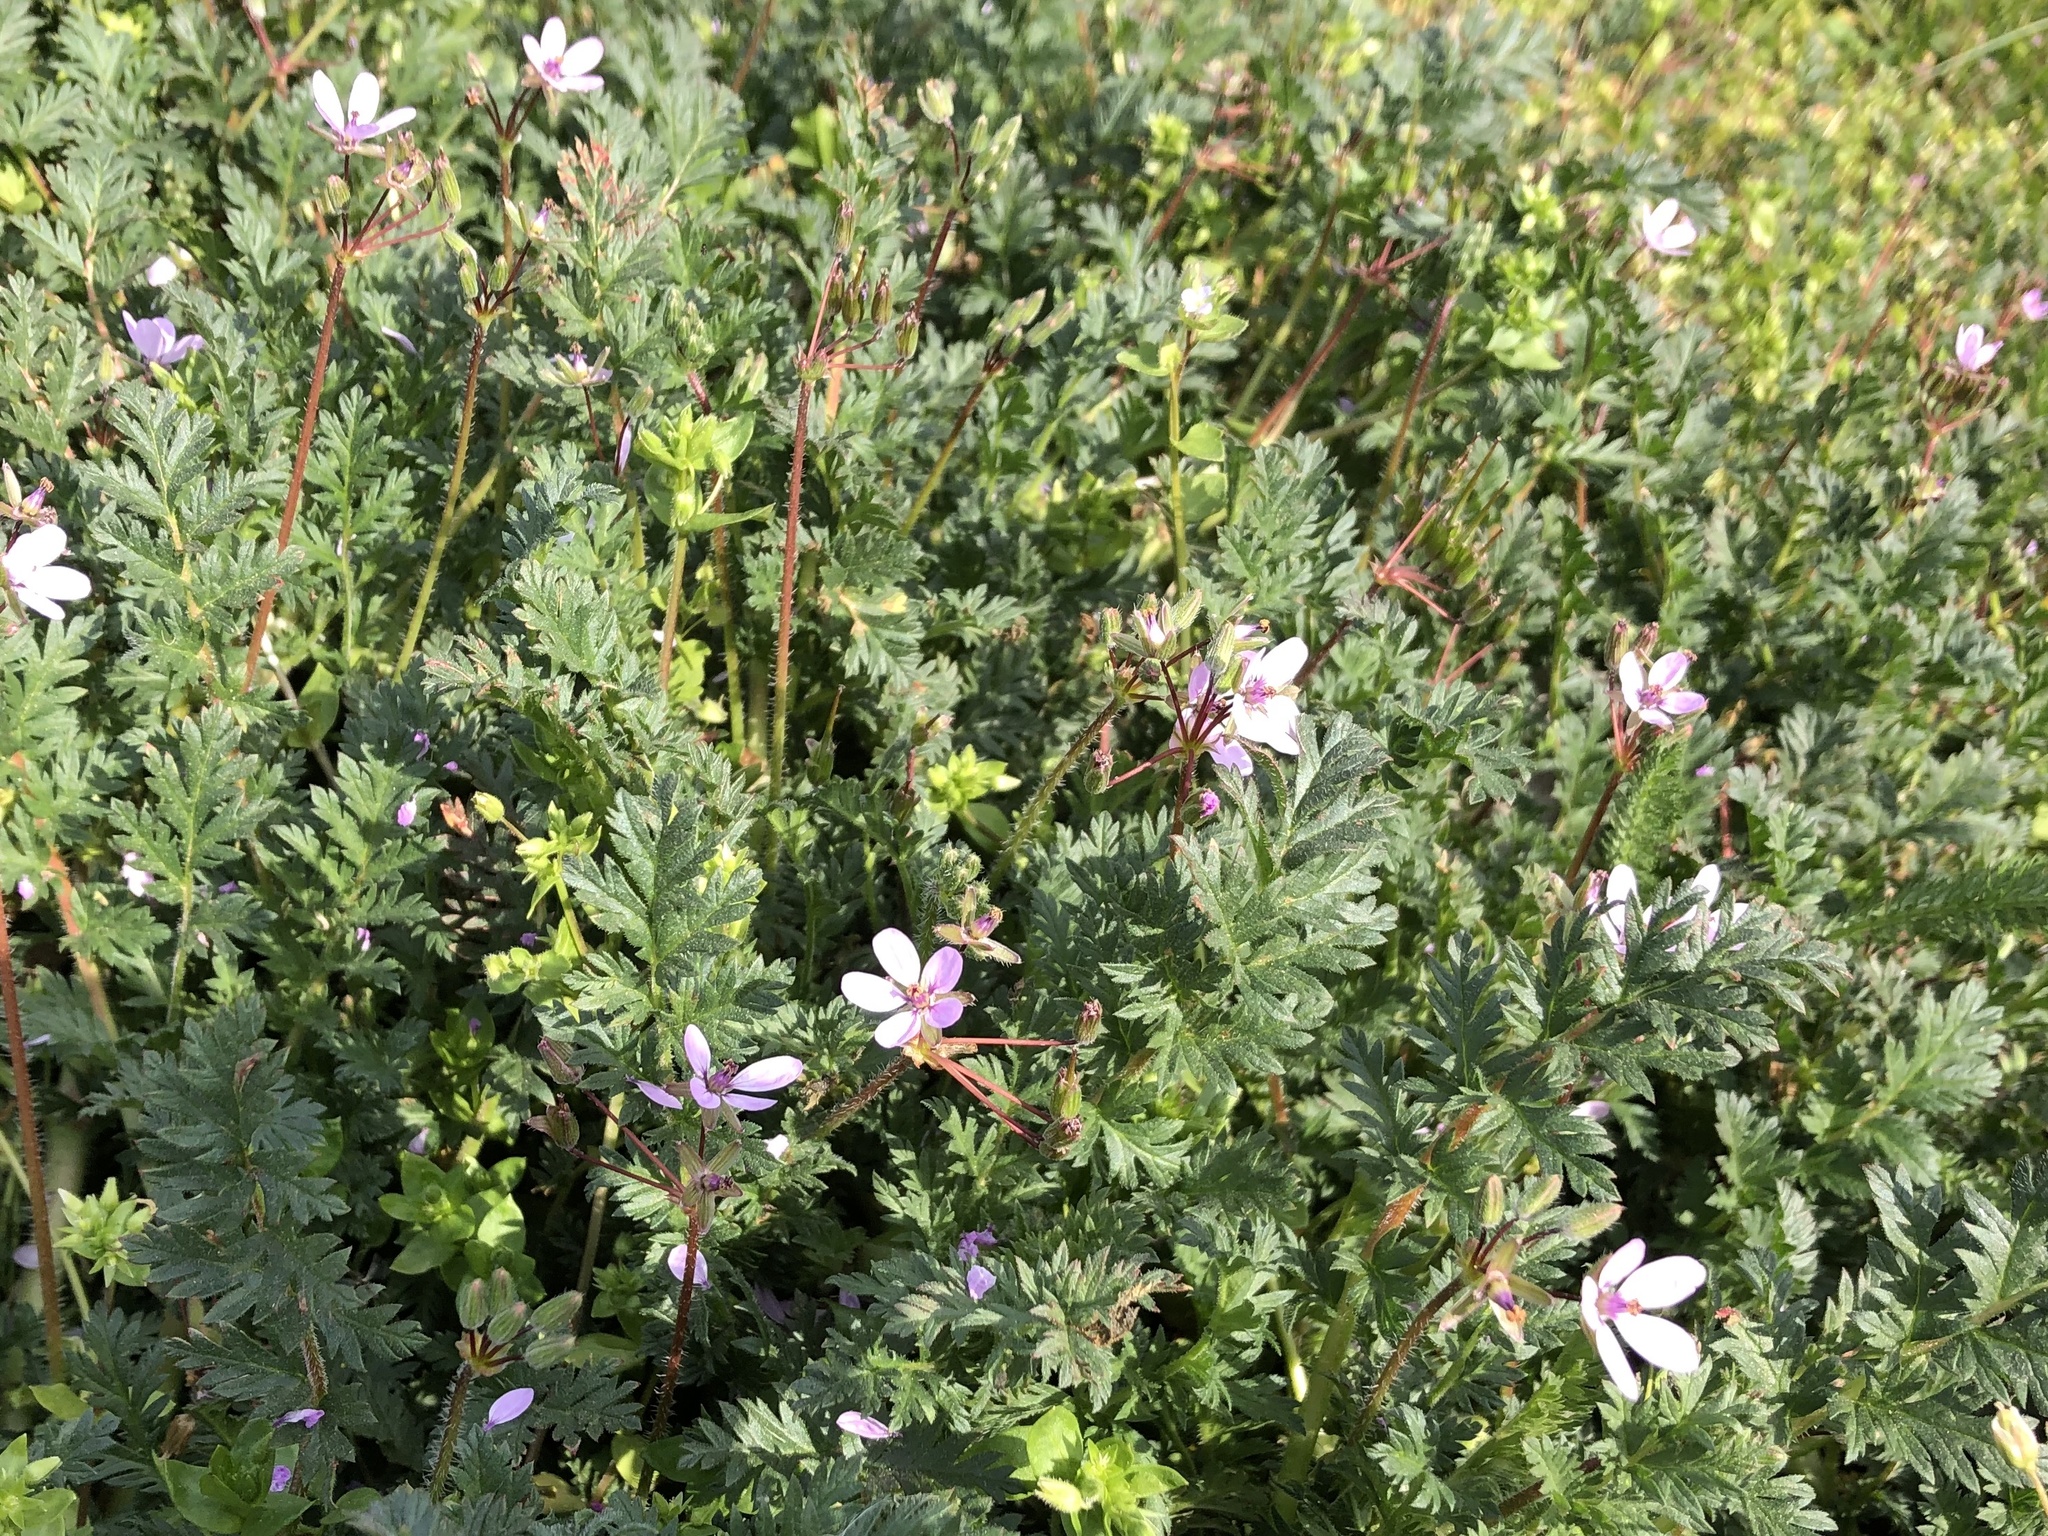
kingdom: Plantae
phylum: Tracheophyta
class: Magnoliopsida
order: Geraniales
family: Geraniaceae
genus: Erodium
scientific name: Erodium cicutarium
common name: Common stork's-bill
